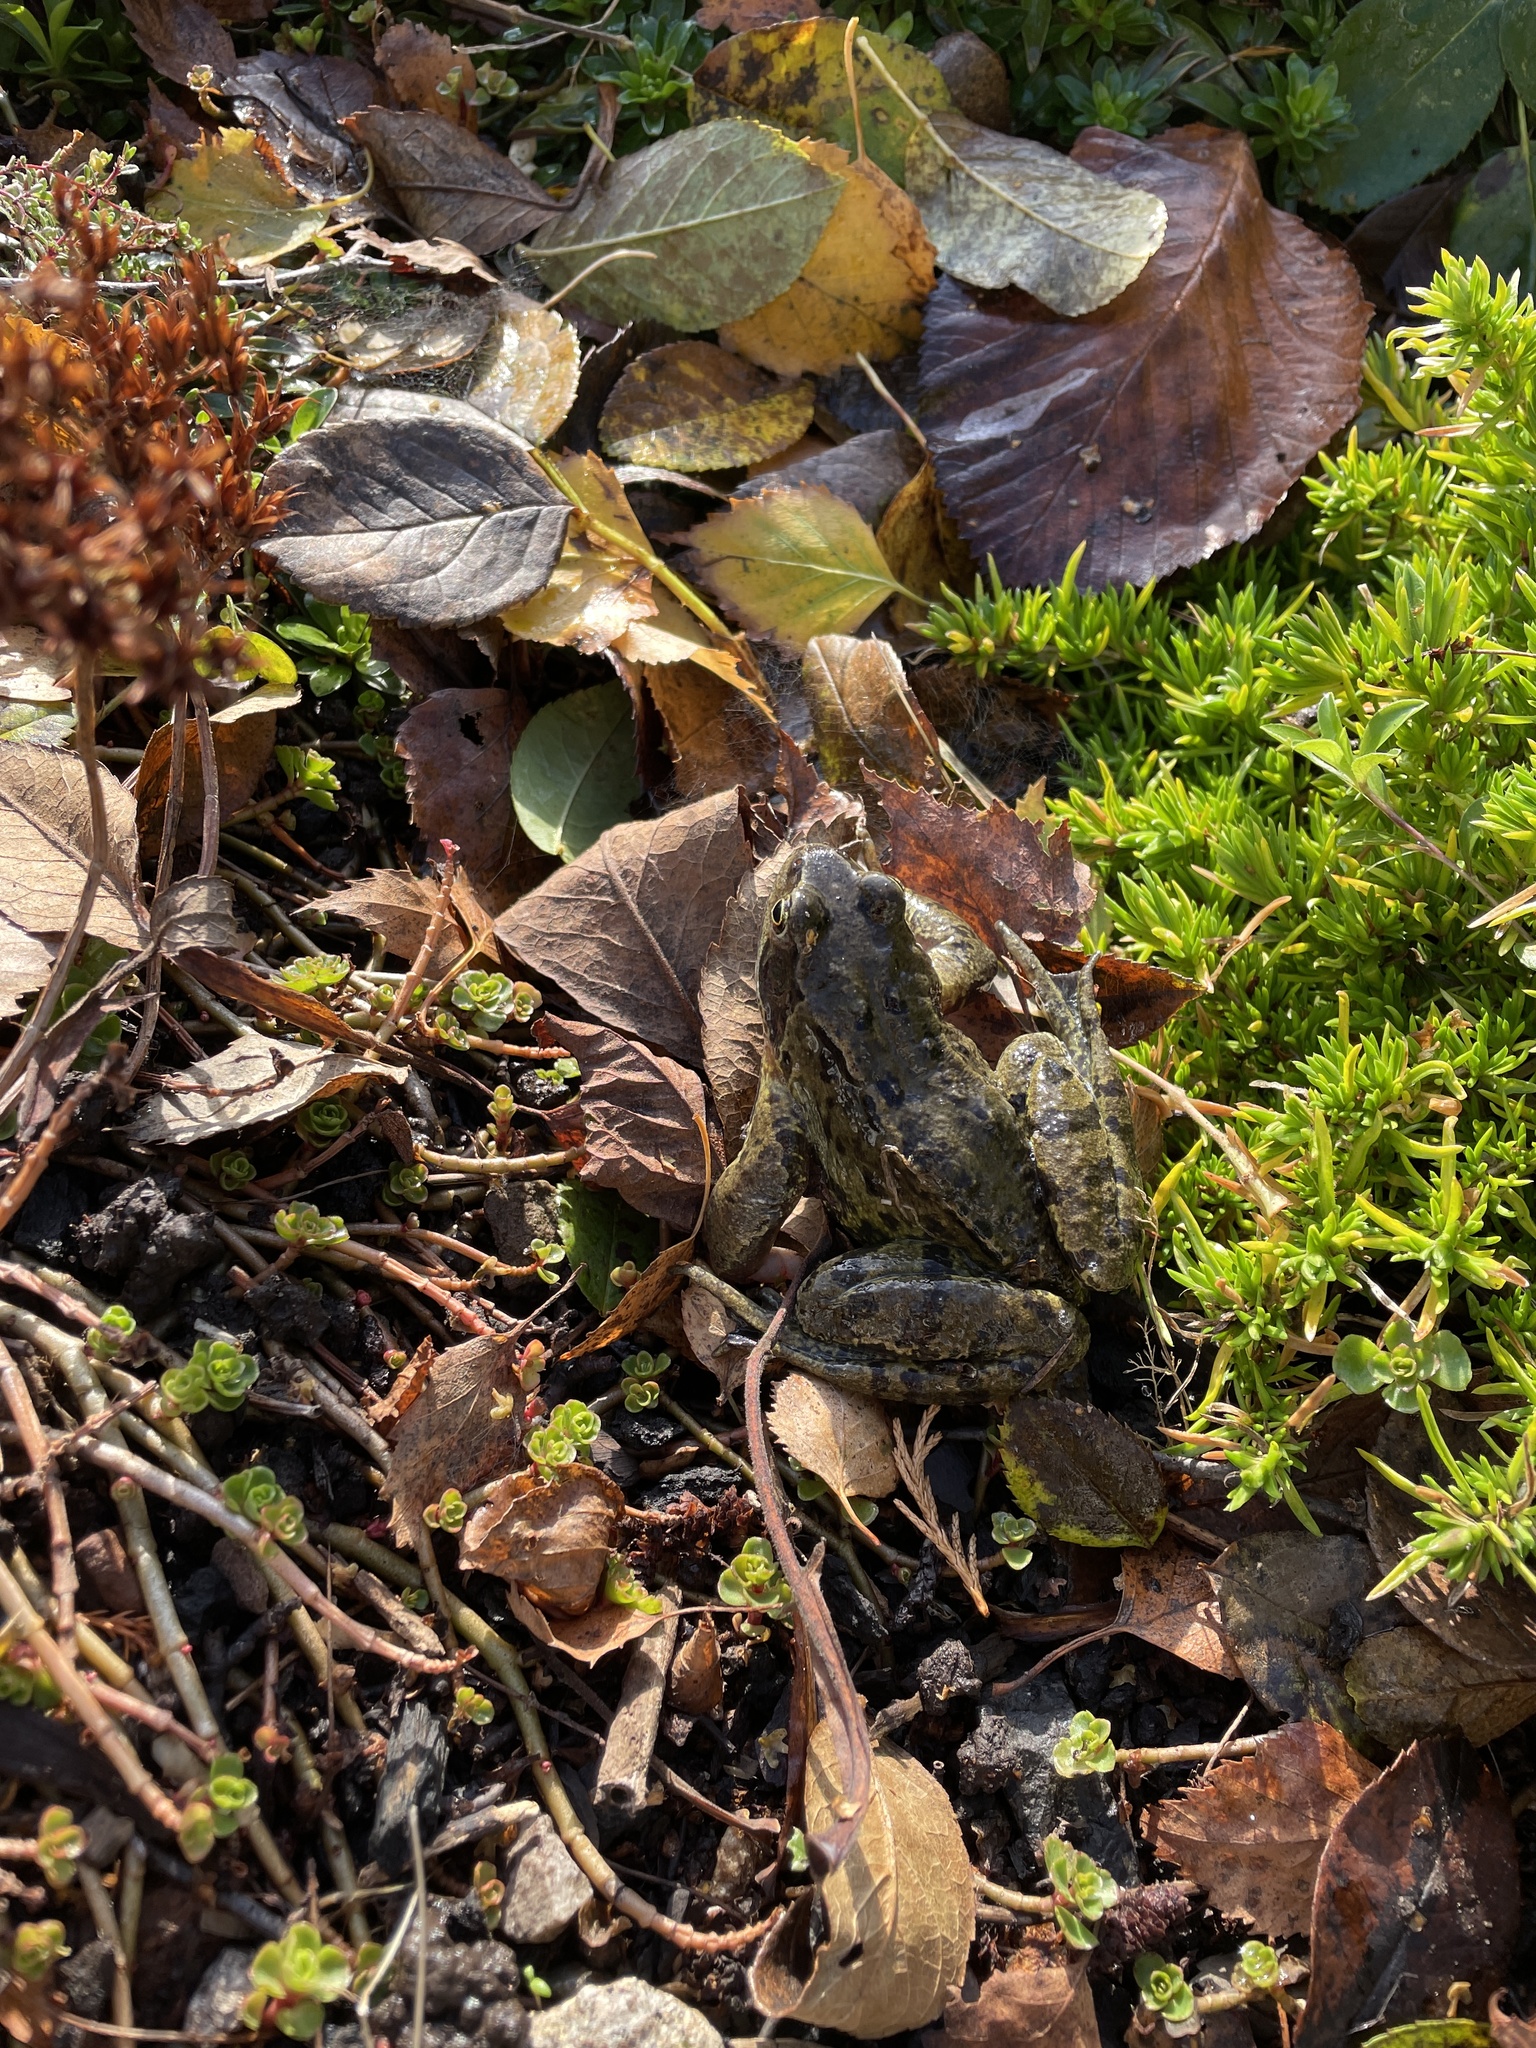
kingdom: Animalia
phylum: Chordata
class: Amphibia
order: Anura
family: Ranidae
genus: Rana
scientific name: Rana temporaria
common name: Common frog
